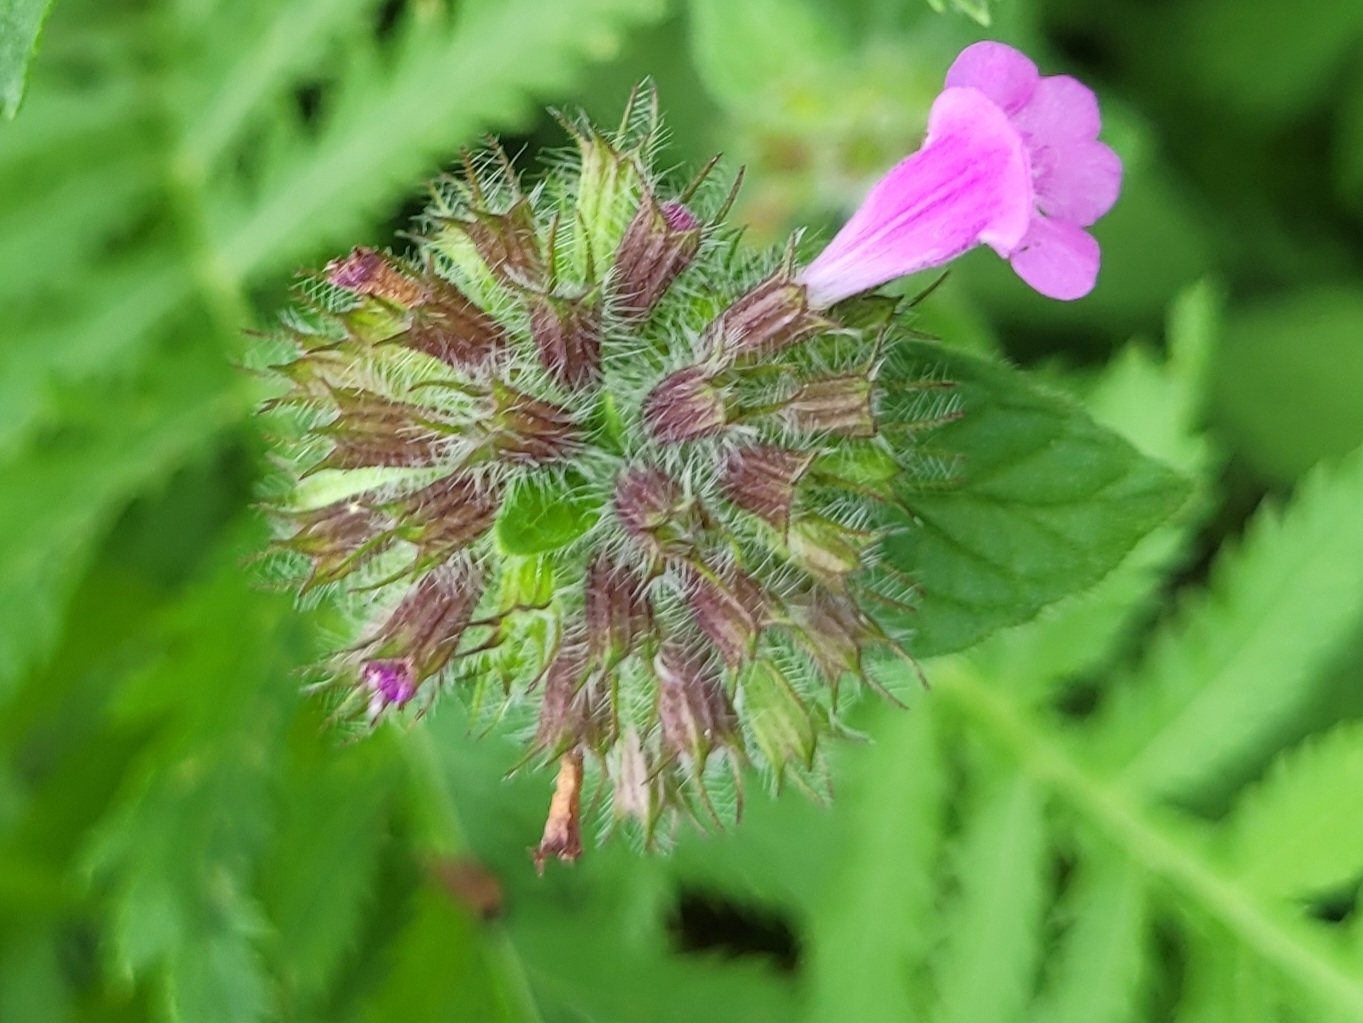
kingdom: Plantae
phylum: Tracheophyta
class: Magnoliopsida
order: Lamiales
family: Lamiaceae
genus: Clinopodium
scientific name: Clinopodium vulgare
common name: Wild basil
